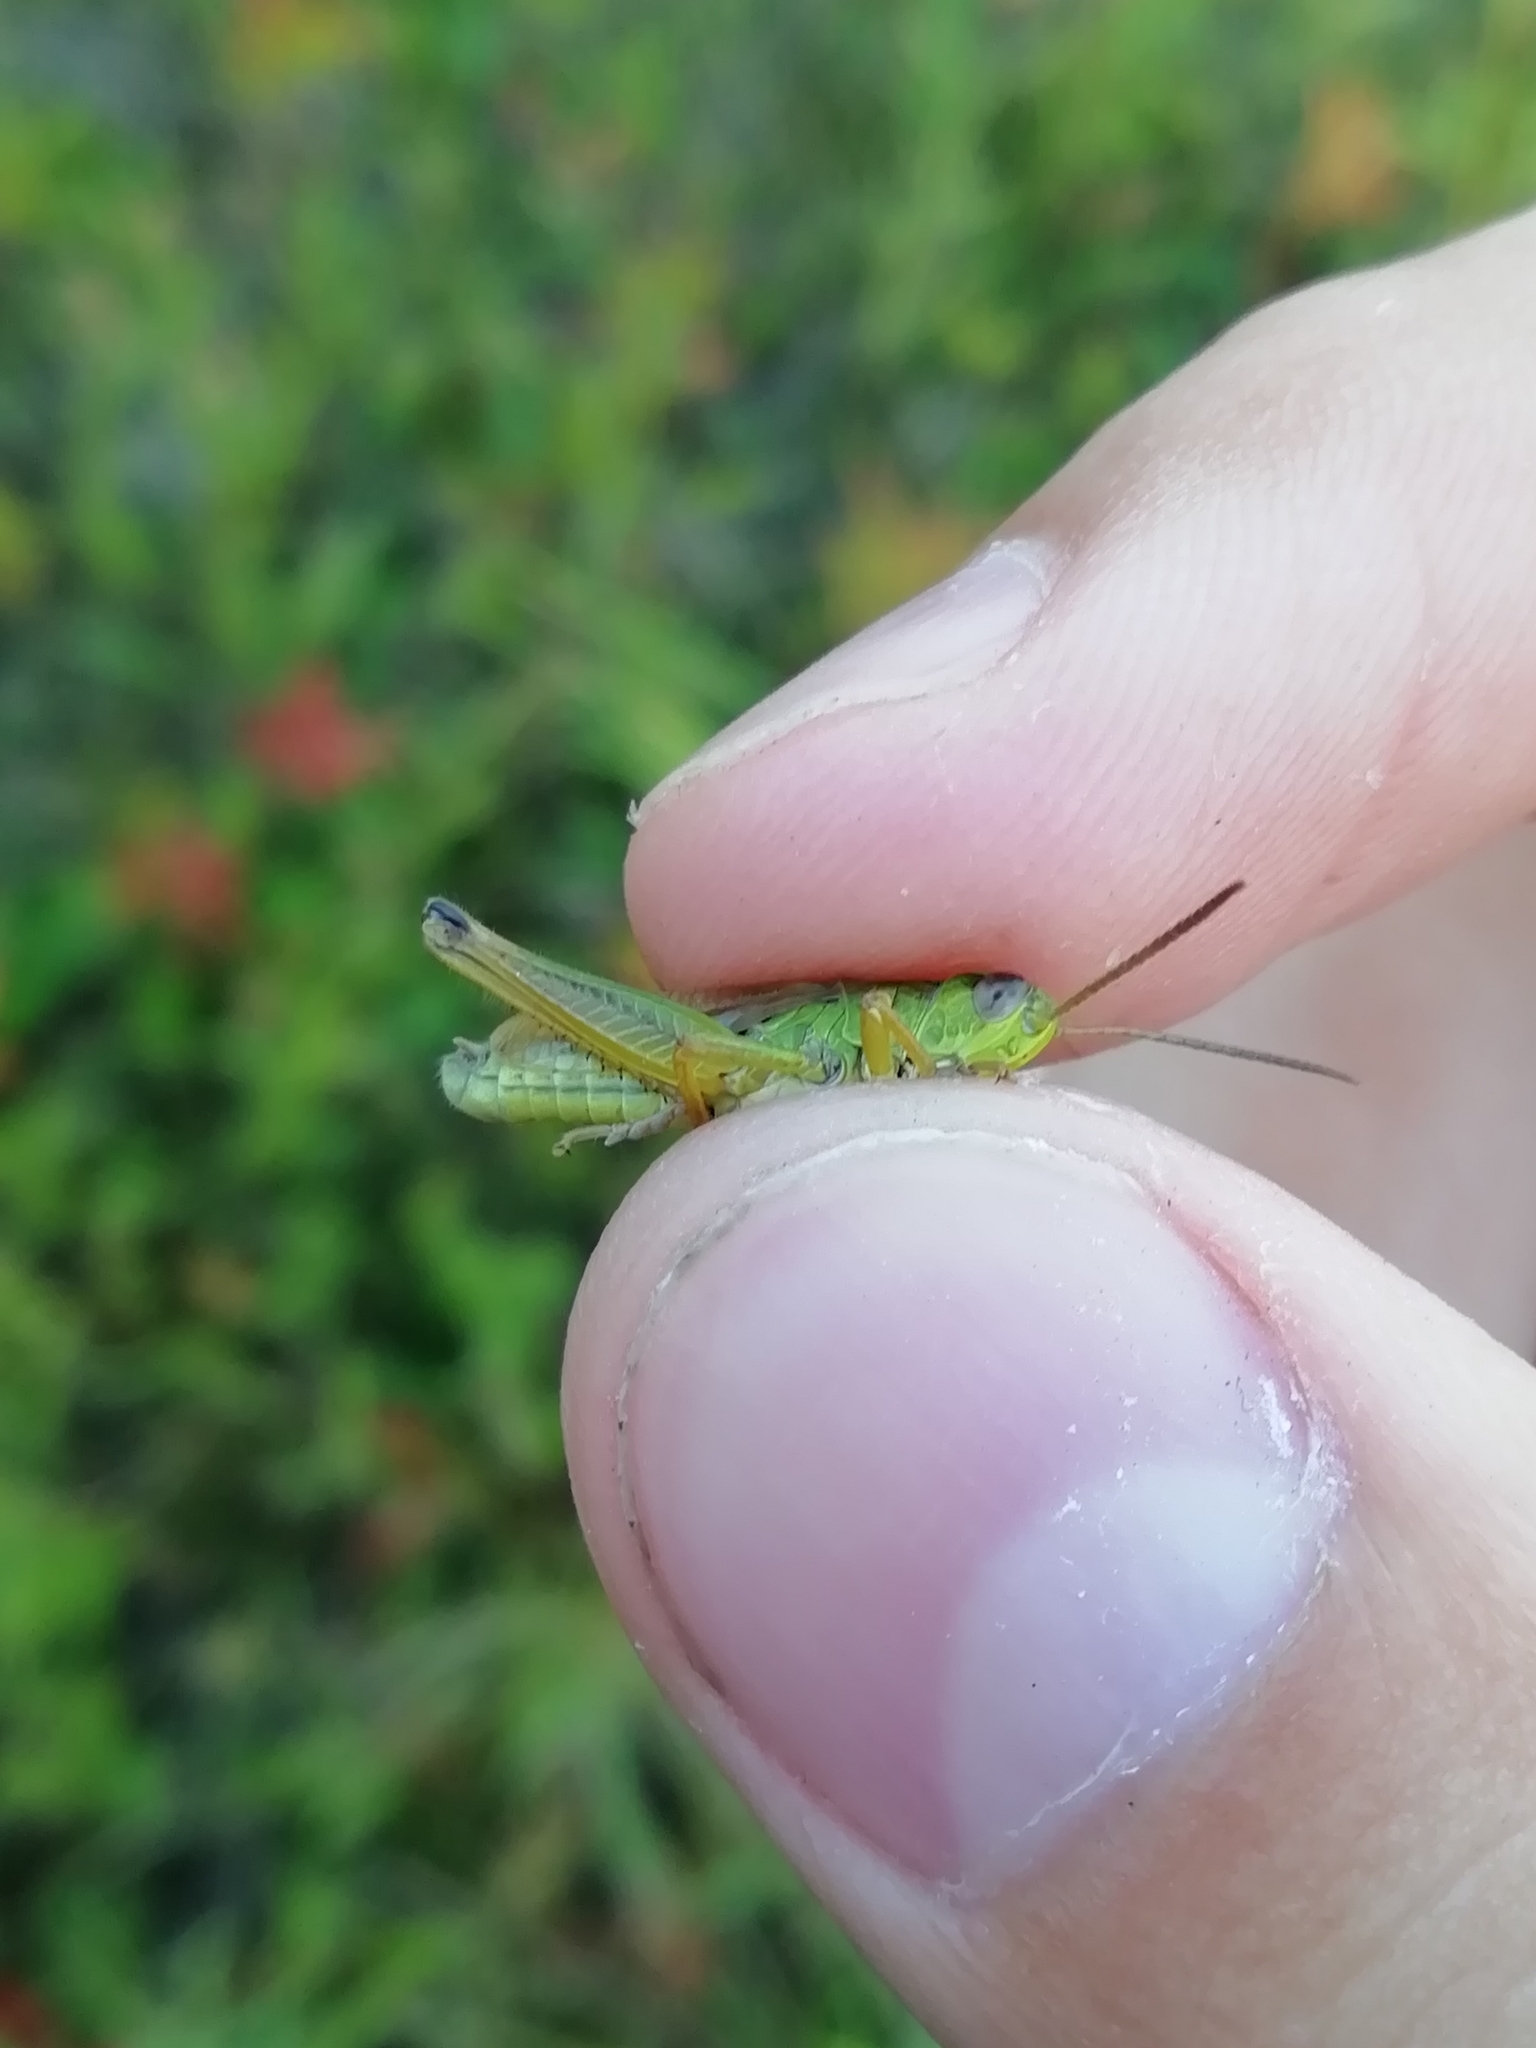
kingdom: Animalia
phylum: Arthropoda
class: Insecta
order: Orthoptera
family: Acrididae
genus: Chorthippus
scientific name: Chorthippus fallax
